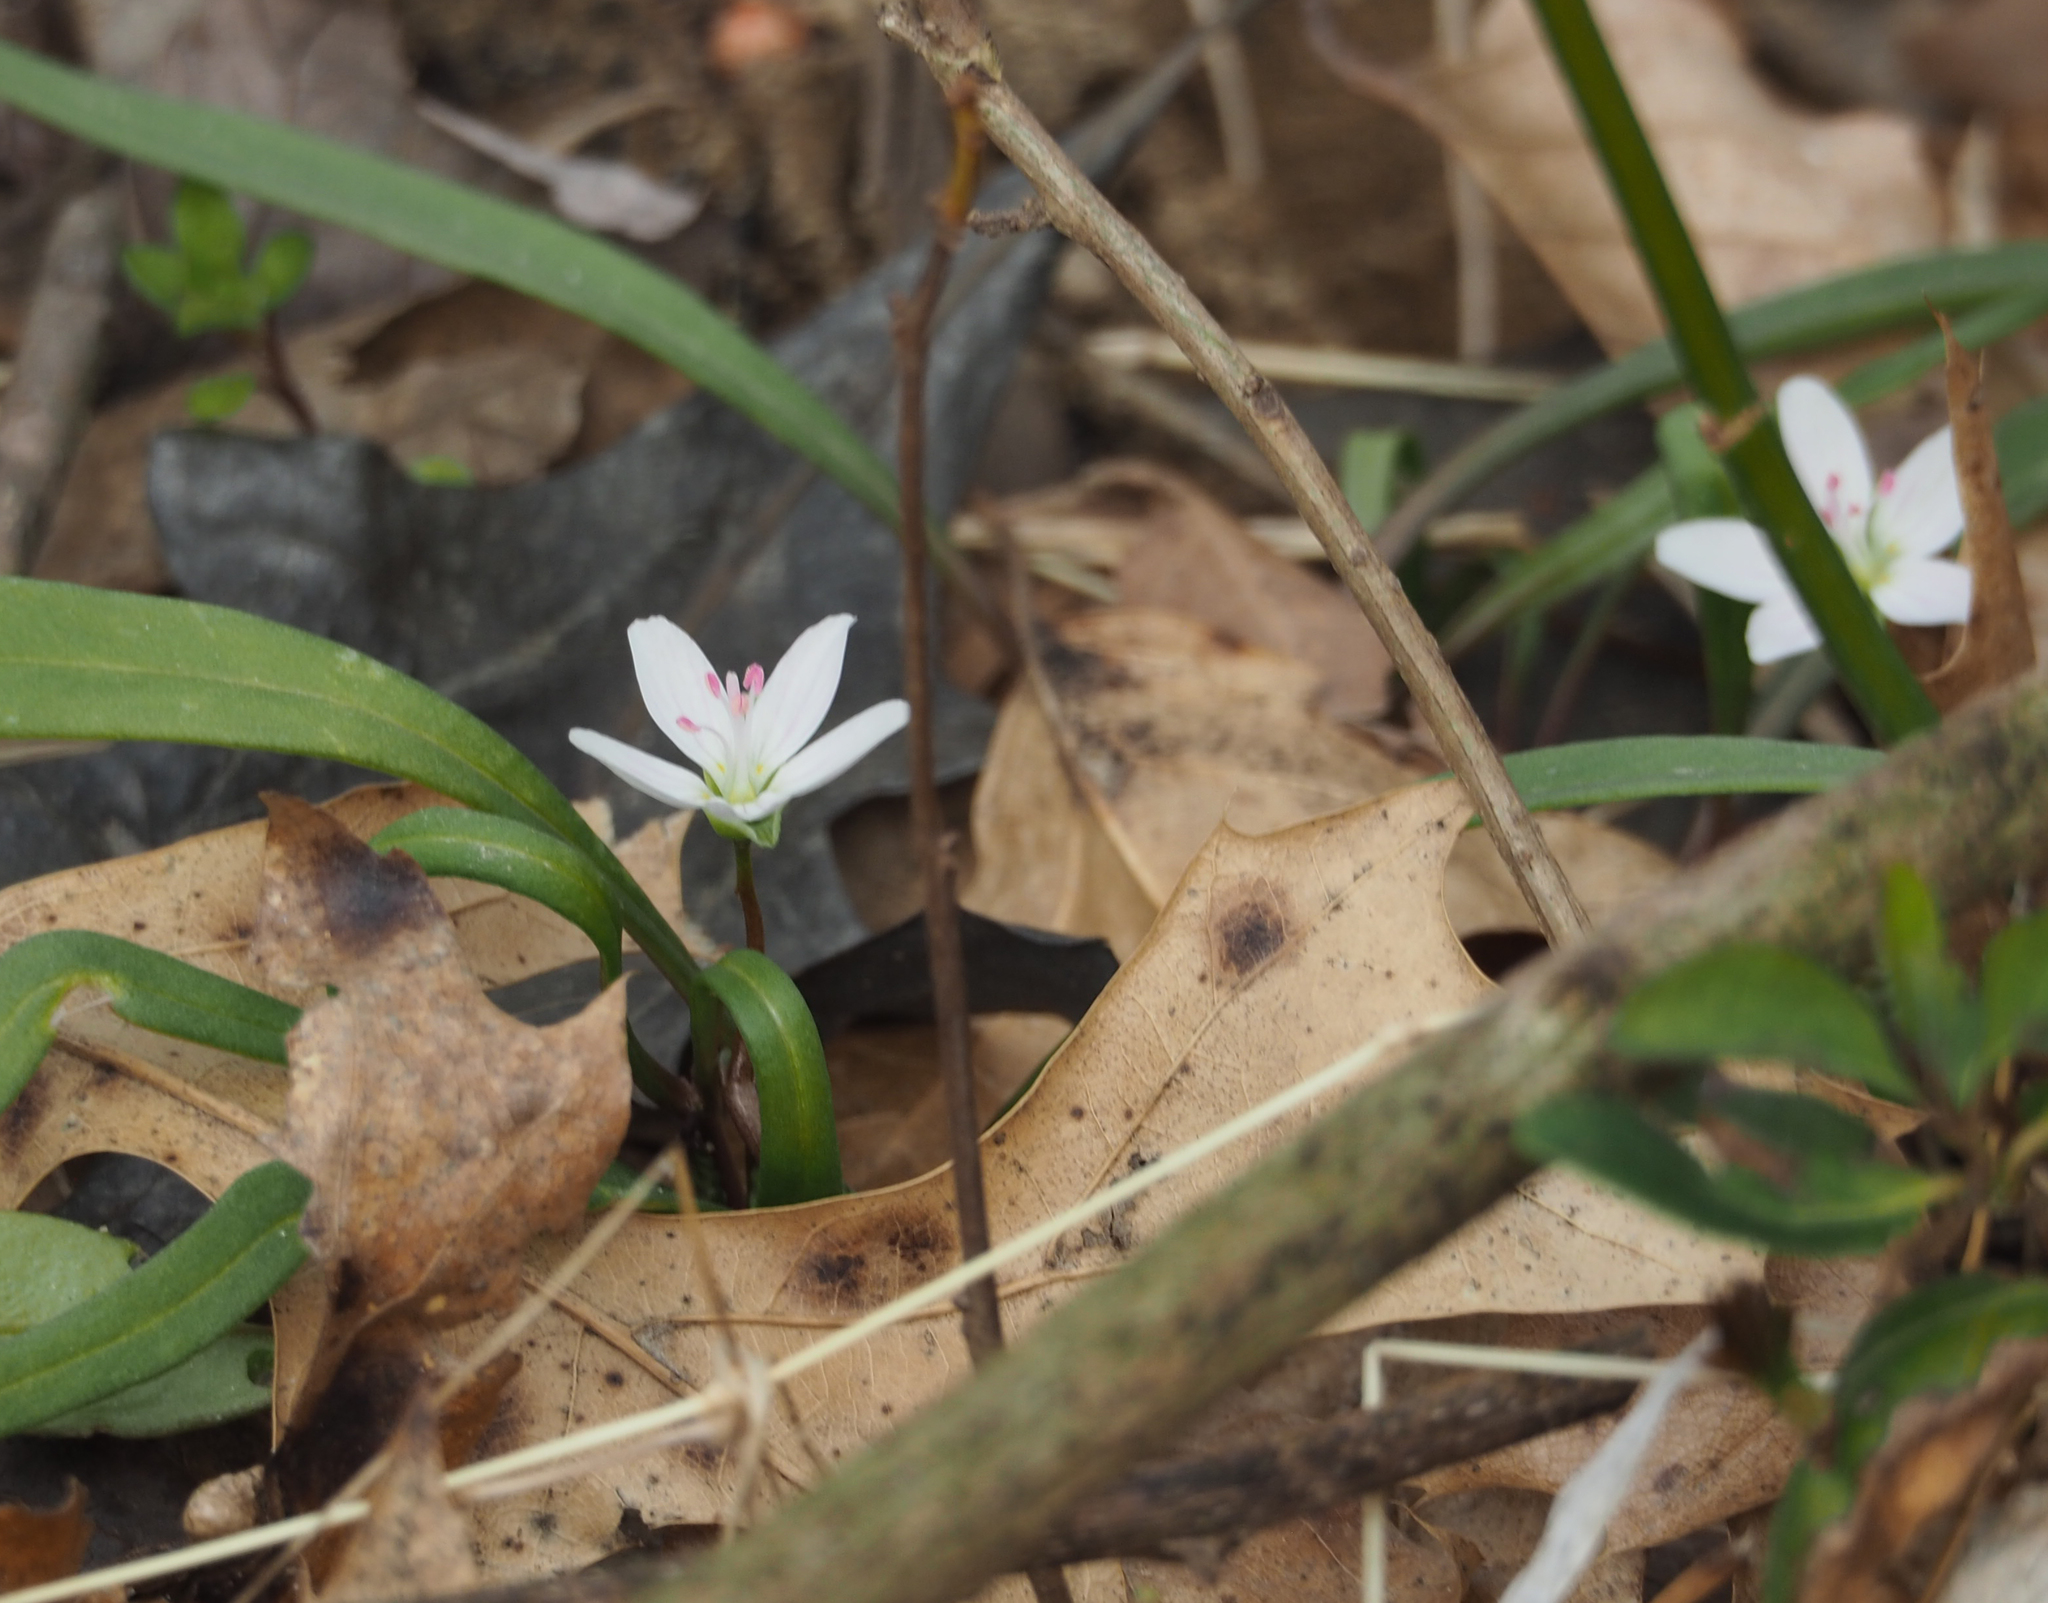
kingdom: Plantae
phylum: Tracheophyta
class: Magnoliopsida
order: Caryophyllales
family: Montiaceae
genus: Claytonia
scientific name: Claytonia virginica
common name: Virginia springbeauty
